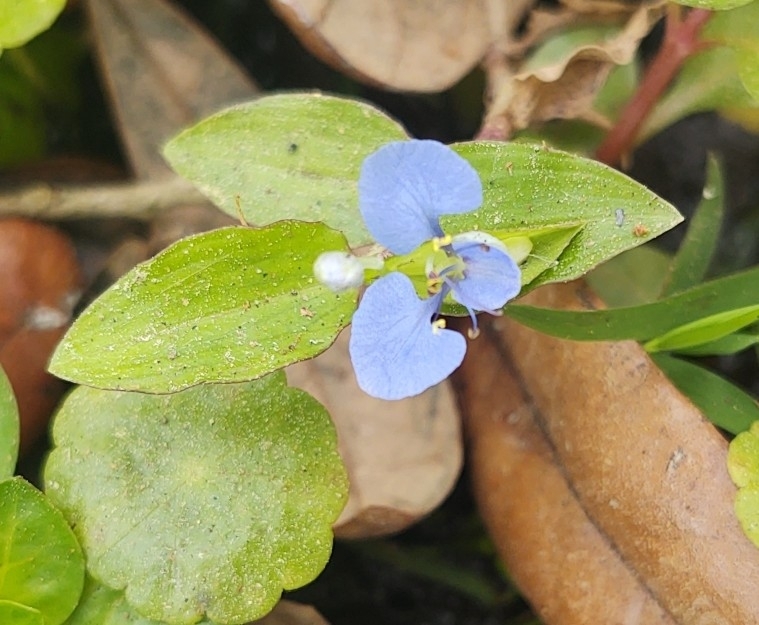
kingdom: Plantae
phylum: Tracheophyta
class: Liliopsida
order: Commelinales
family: Commelinaceae
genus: Commelina
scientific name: Commelina diffusa
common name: Climbing dayflower
